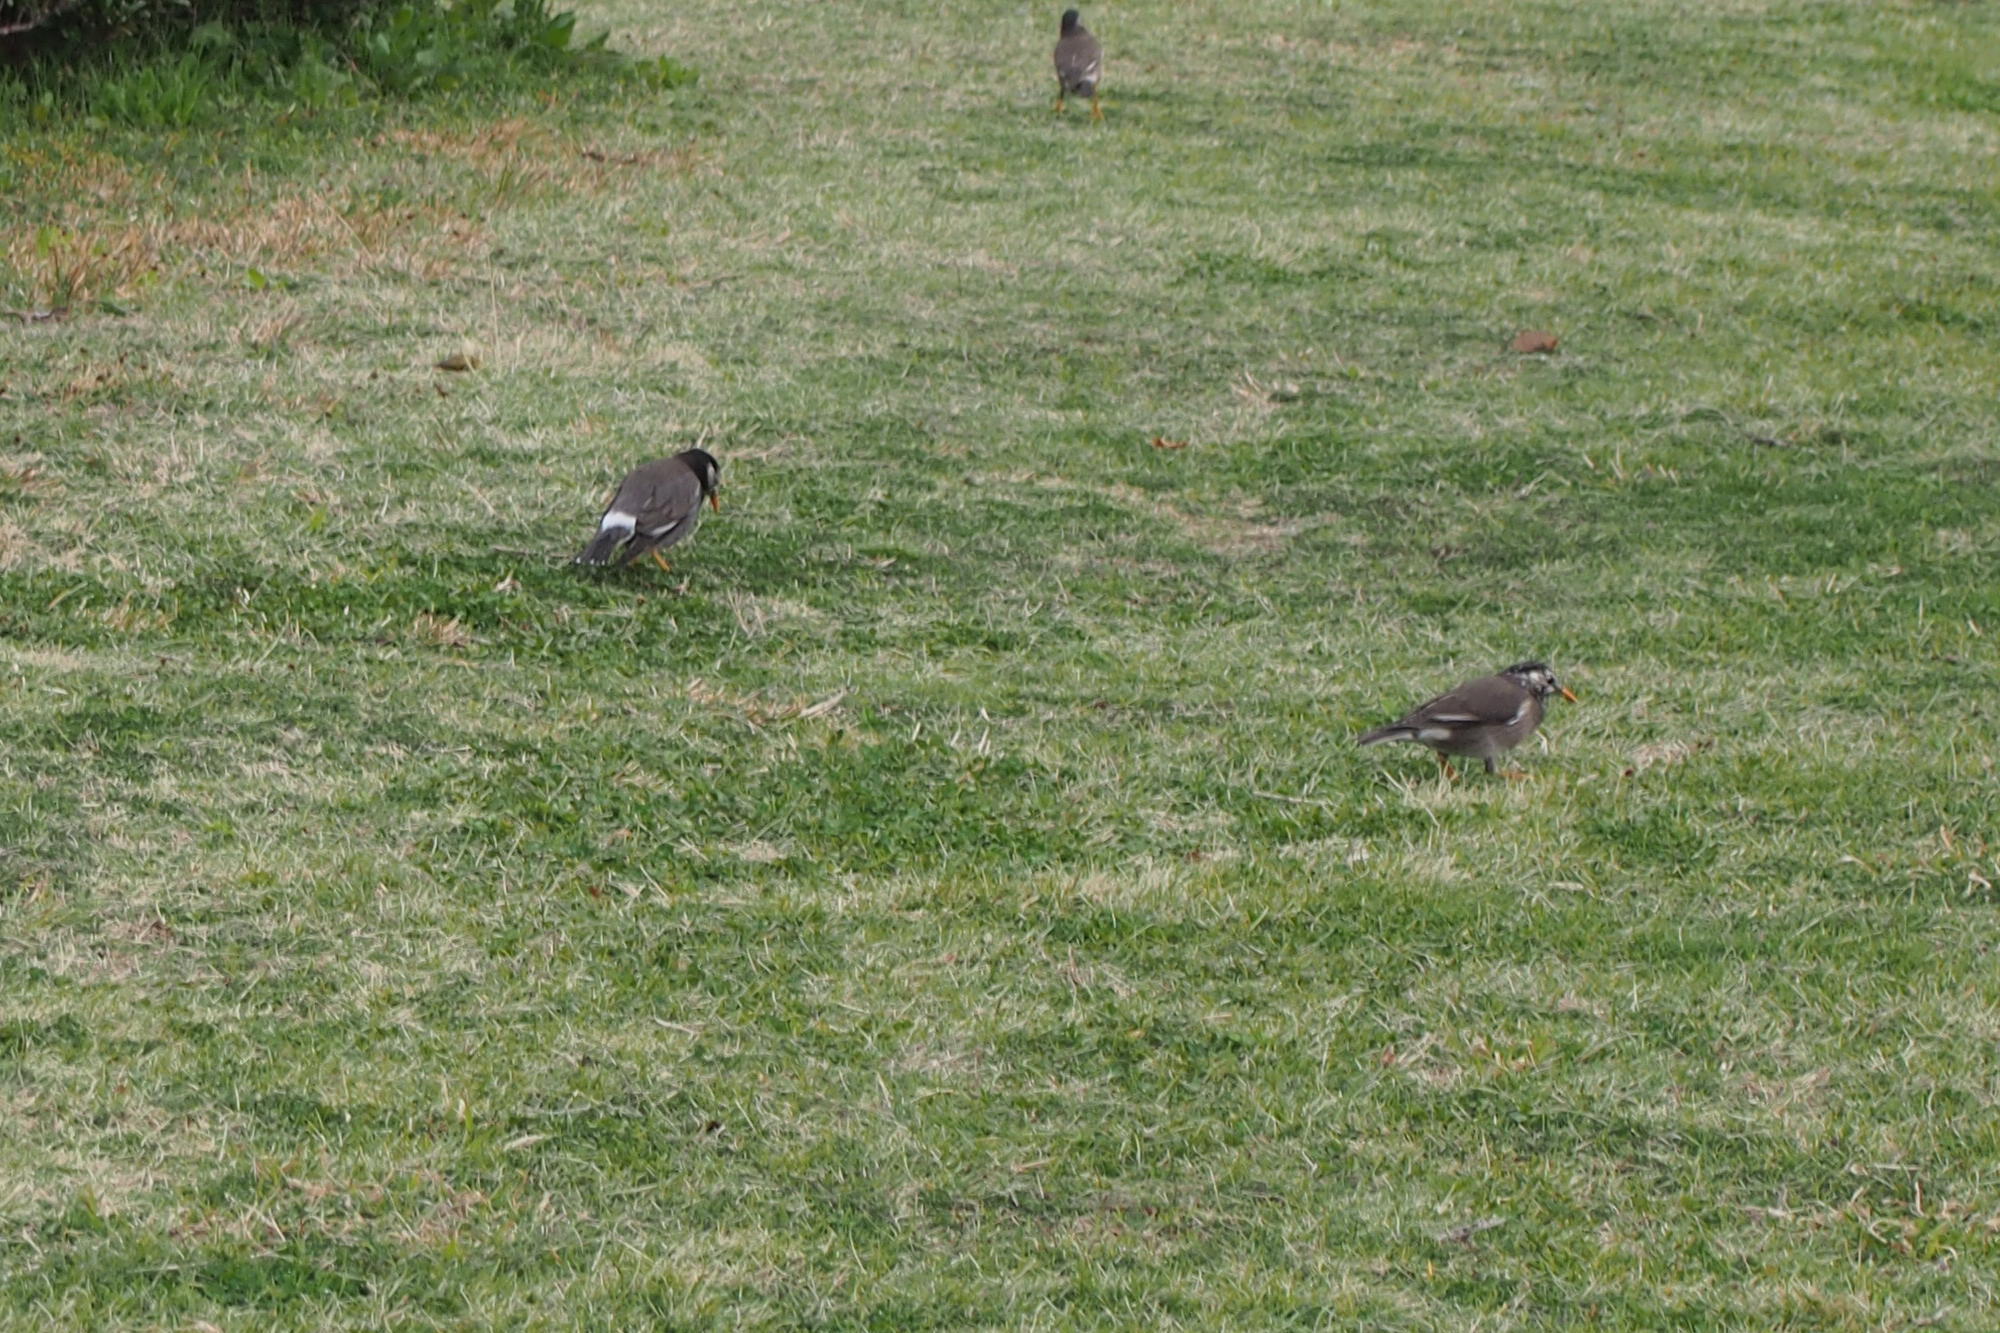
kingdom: Animalia
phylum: Chordata
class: Aves
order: Passeriformes
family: Sturnidae
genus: Spodiopsar
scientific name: Spodiopsar cineraceus
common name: White-cheeked starling
